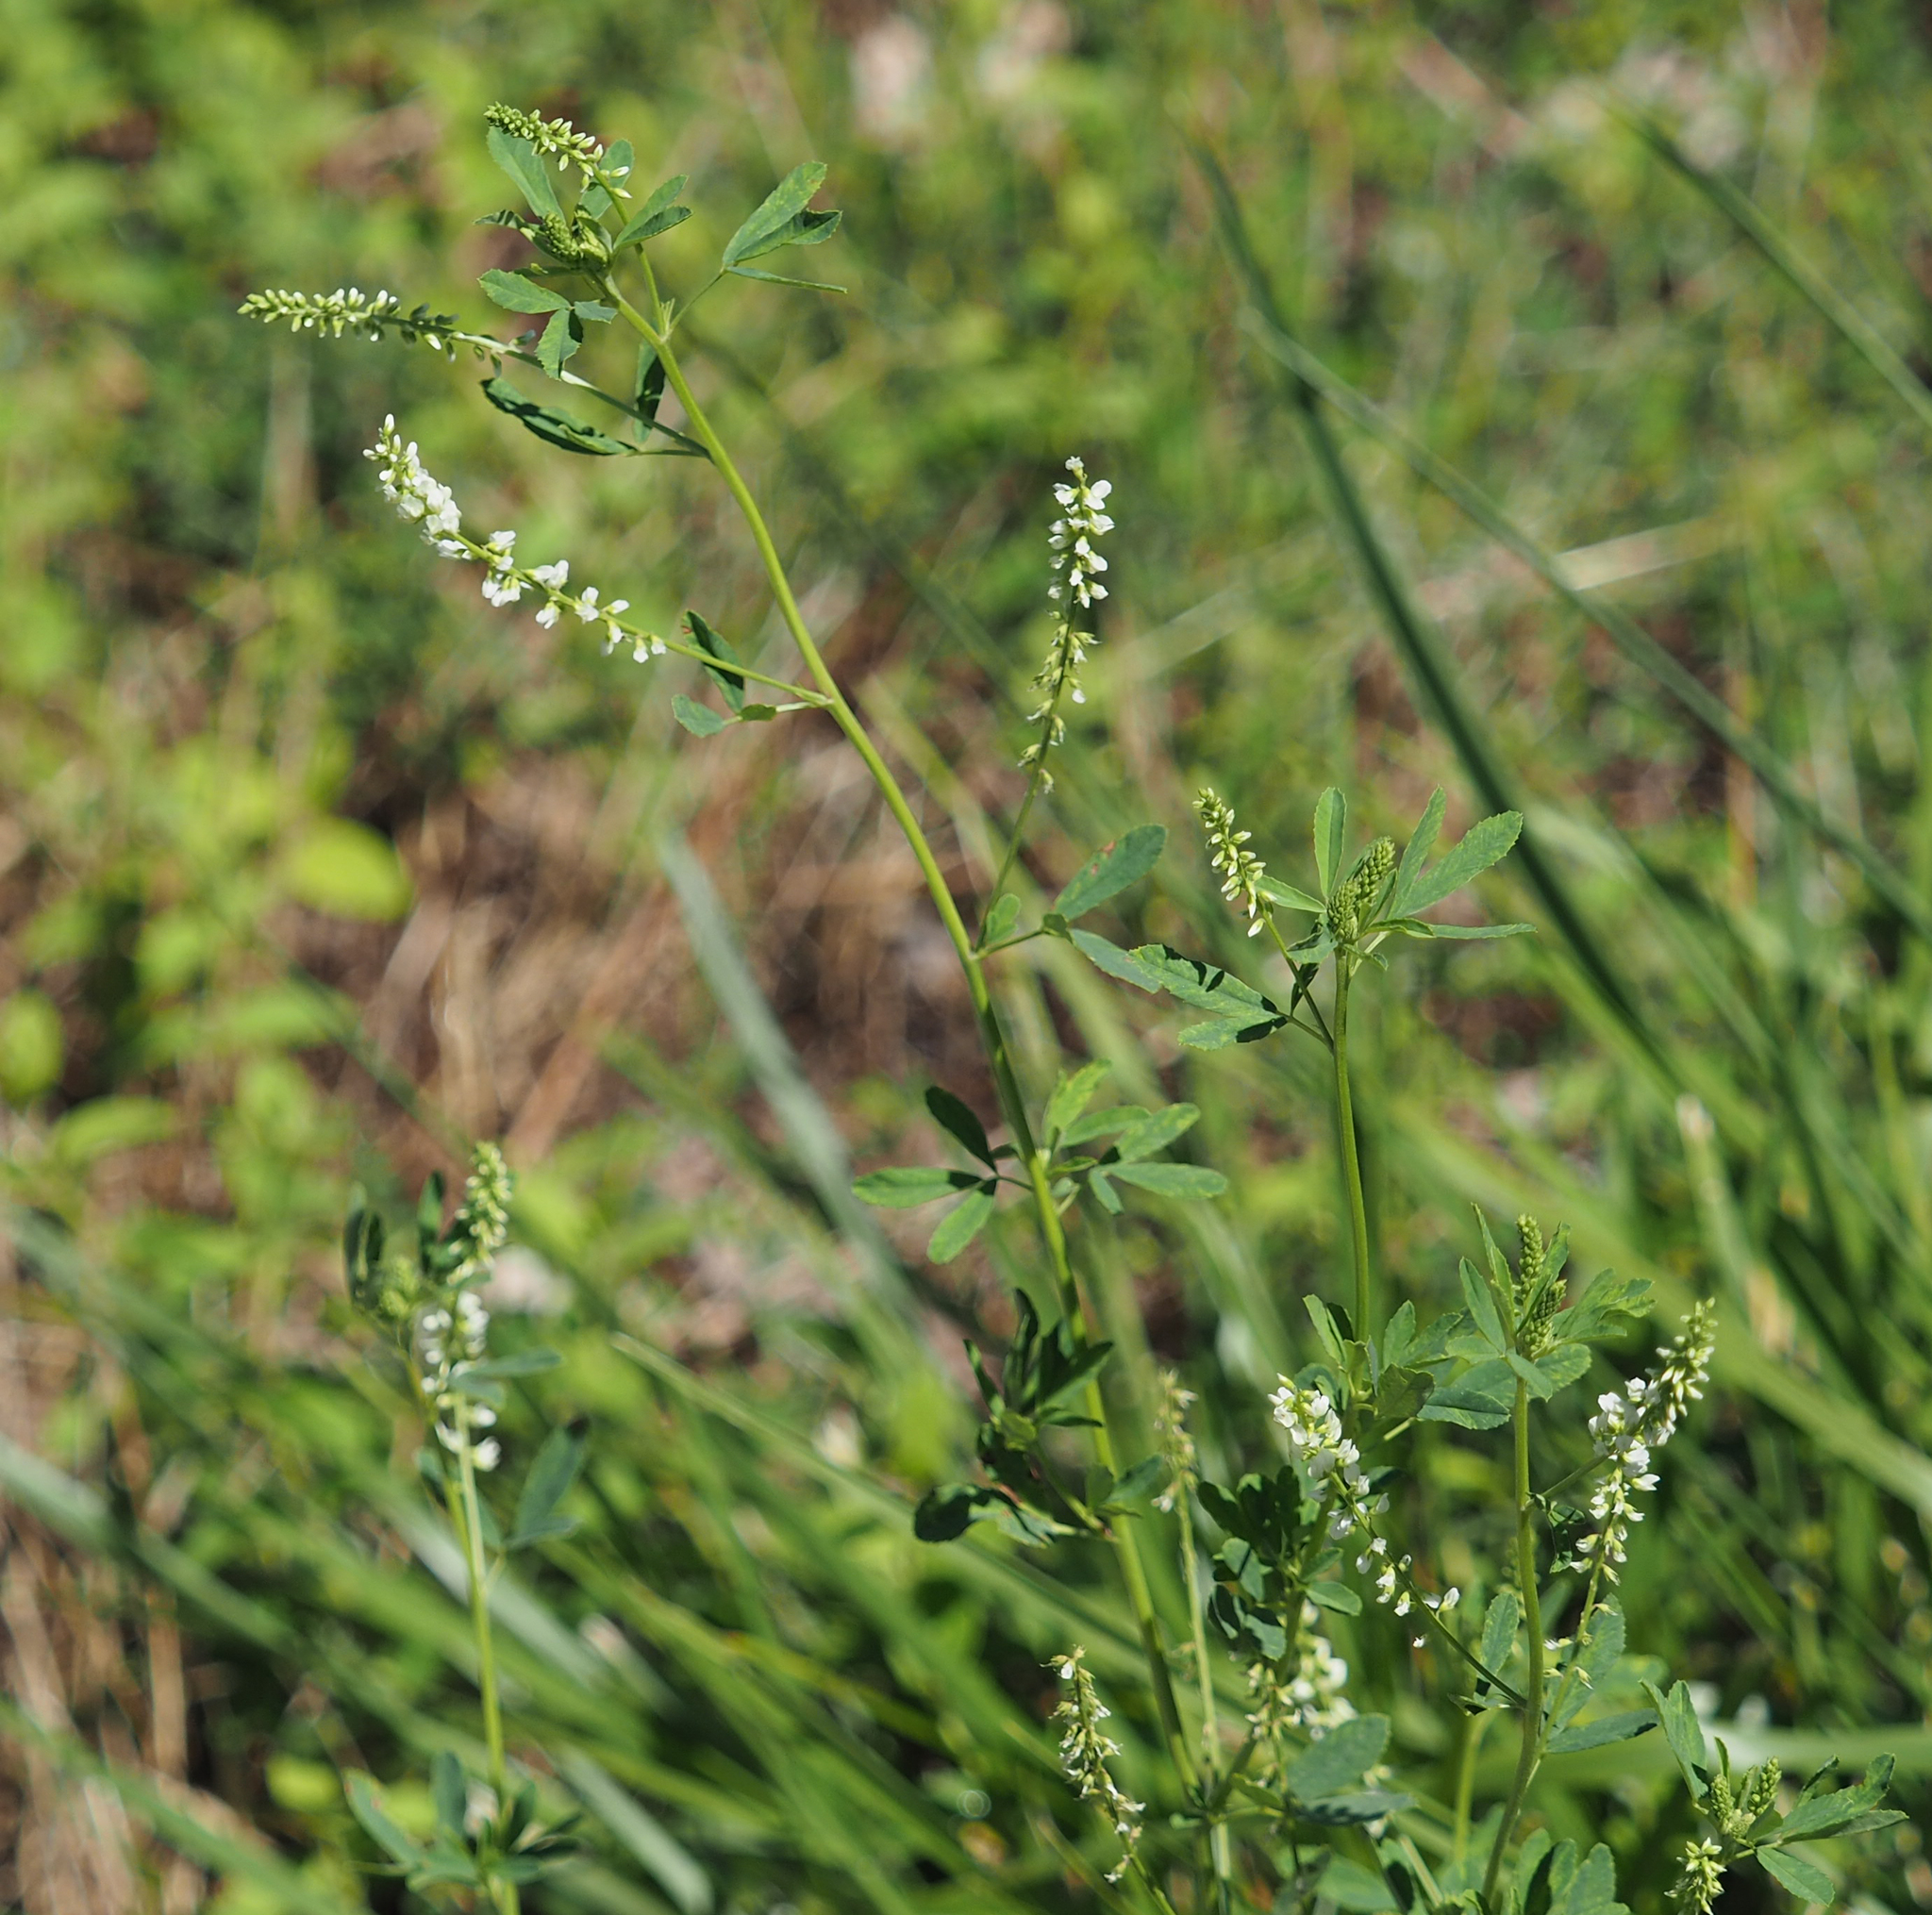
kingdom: Plantae
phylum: Tracheophyta
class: Magnoliopsida
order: Fabales
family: Fabaceae
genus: Melilotus
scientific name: Melilotus albus
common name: White melilot
